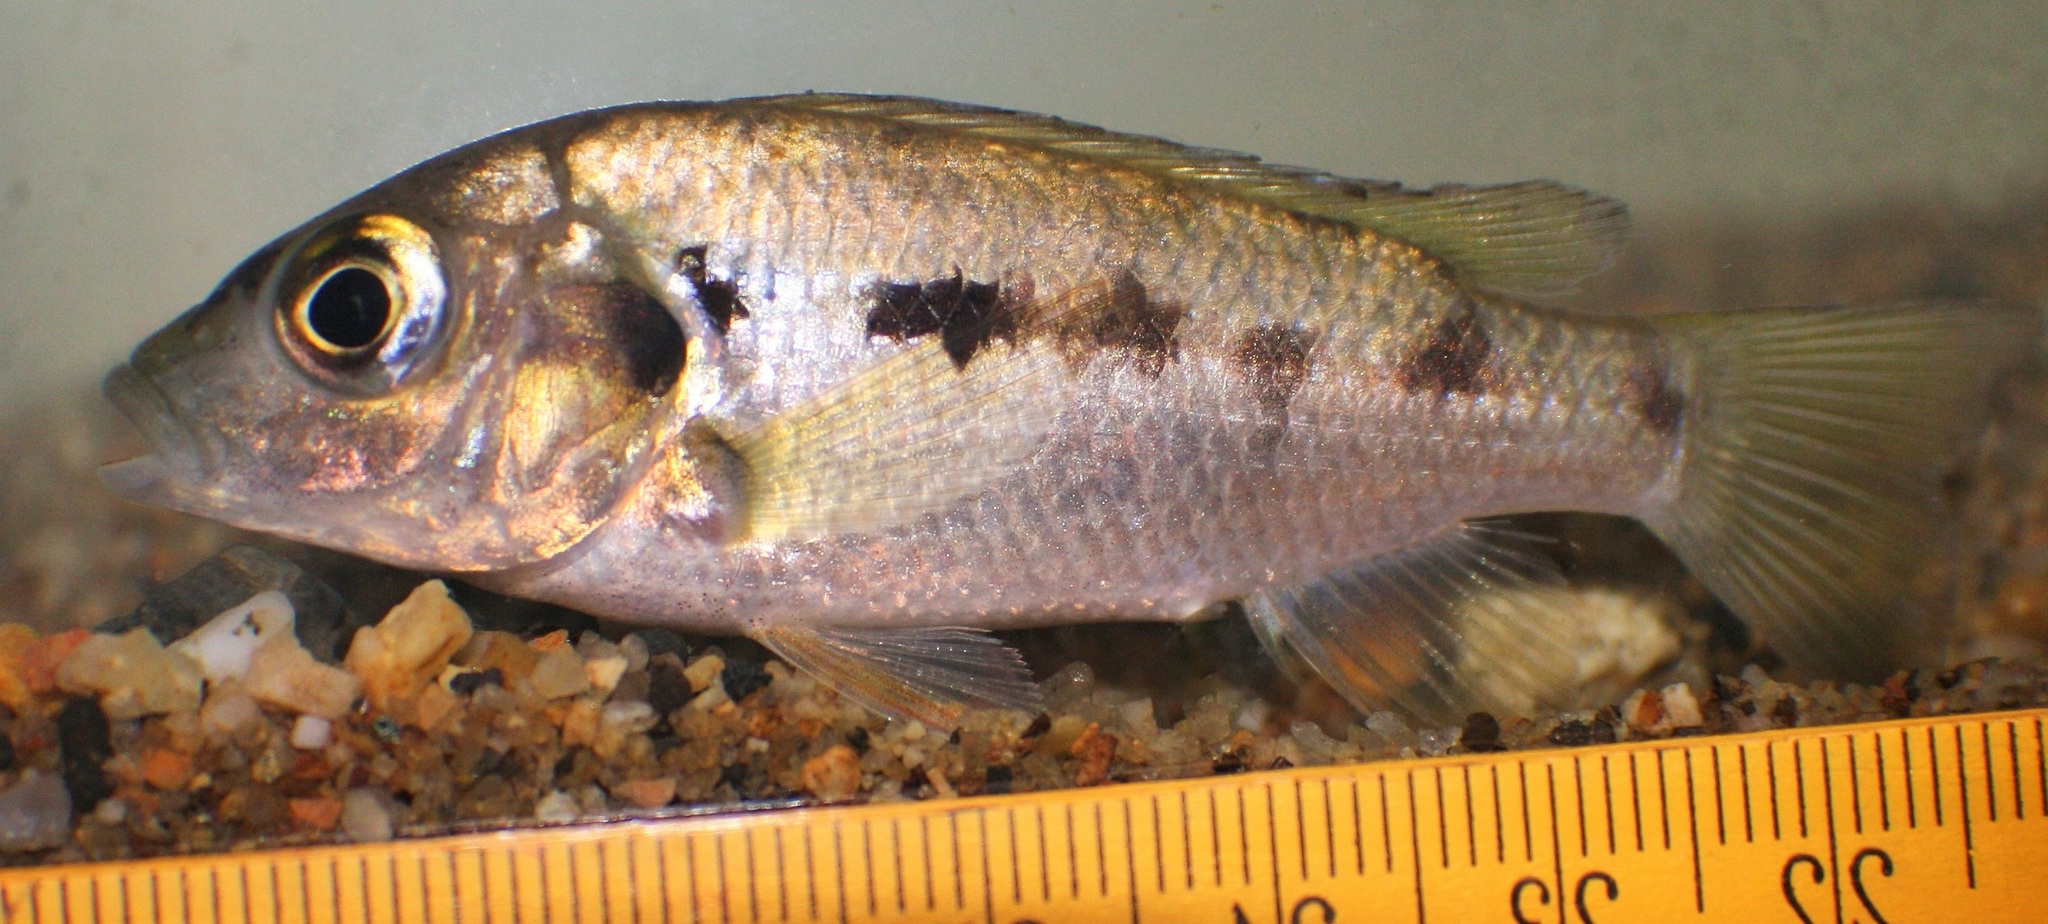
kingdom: Animalia
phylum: Chordata
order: Perciformes
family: Cichlidae
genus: Konia
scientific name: Konia eisentrauti
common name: Konye
